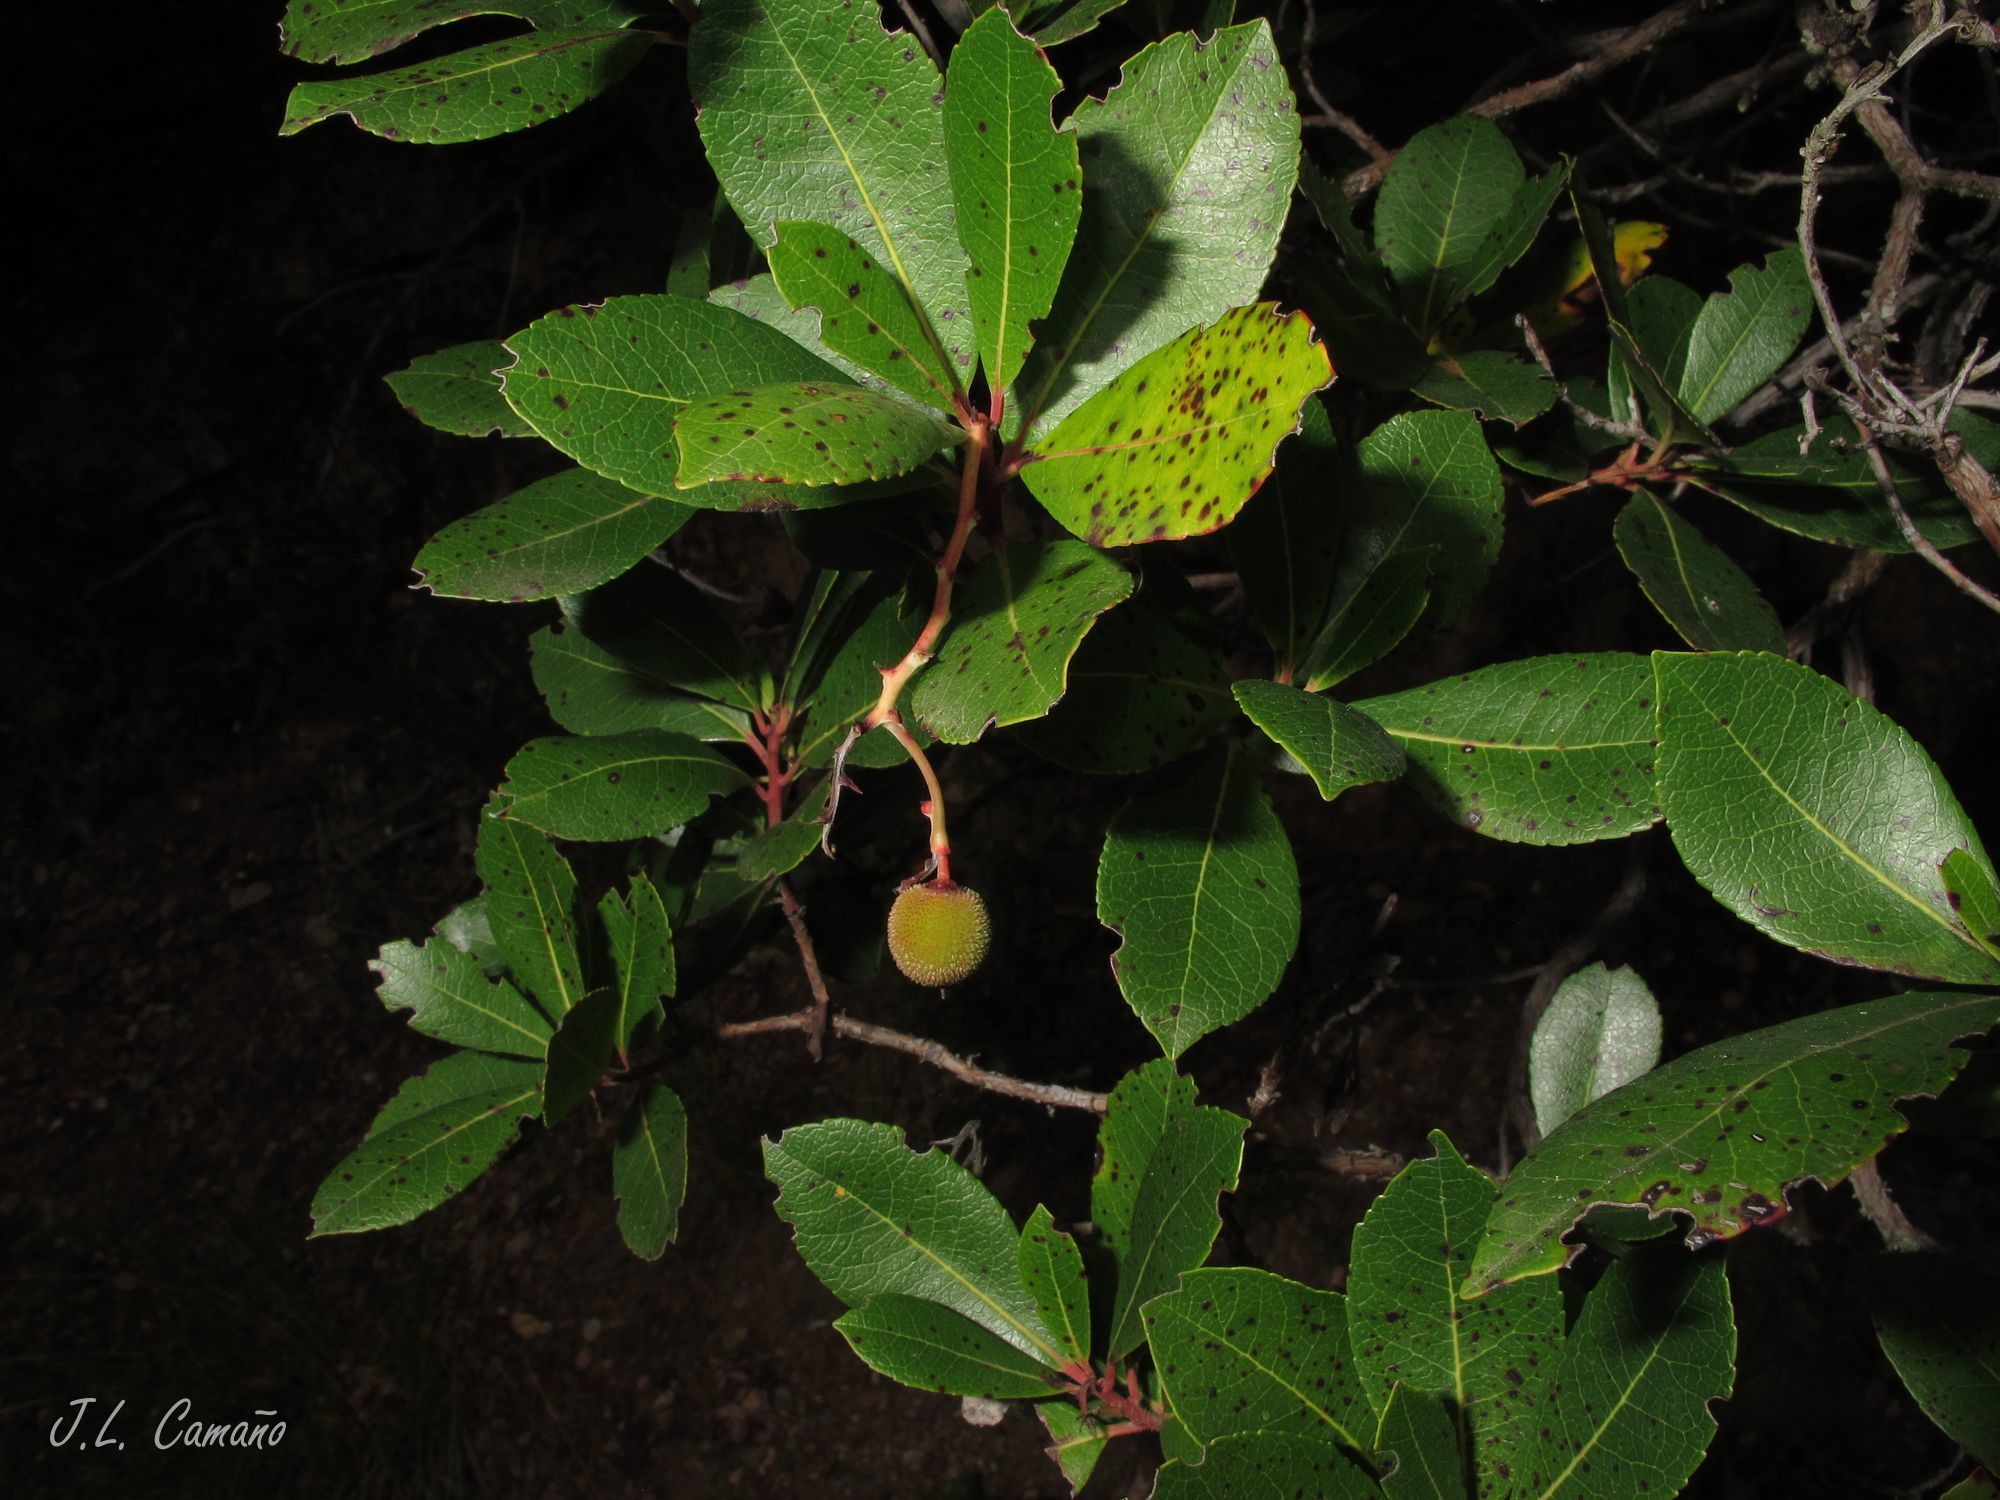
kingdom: Plantae
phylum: Tracheophyta
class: Magnoliopsida
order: Ericales
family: Ericaceae
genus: Arbutus
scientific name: Arbutus unedo
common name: Strawberry-tree
